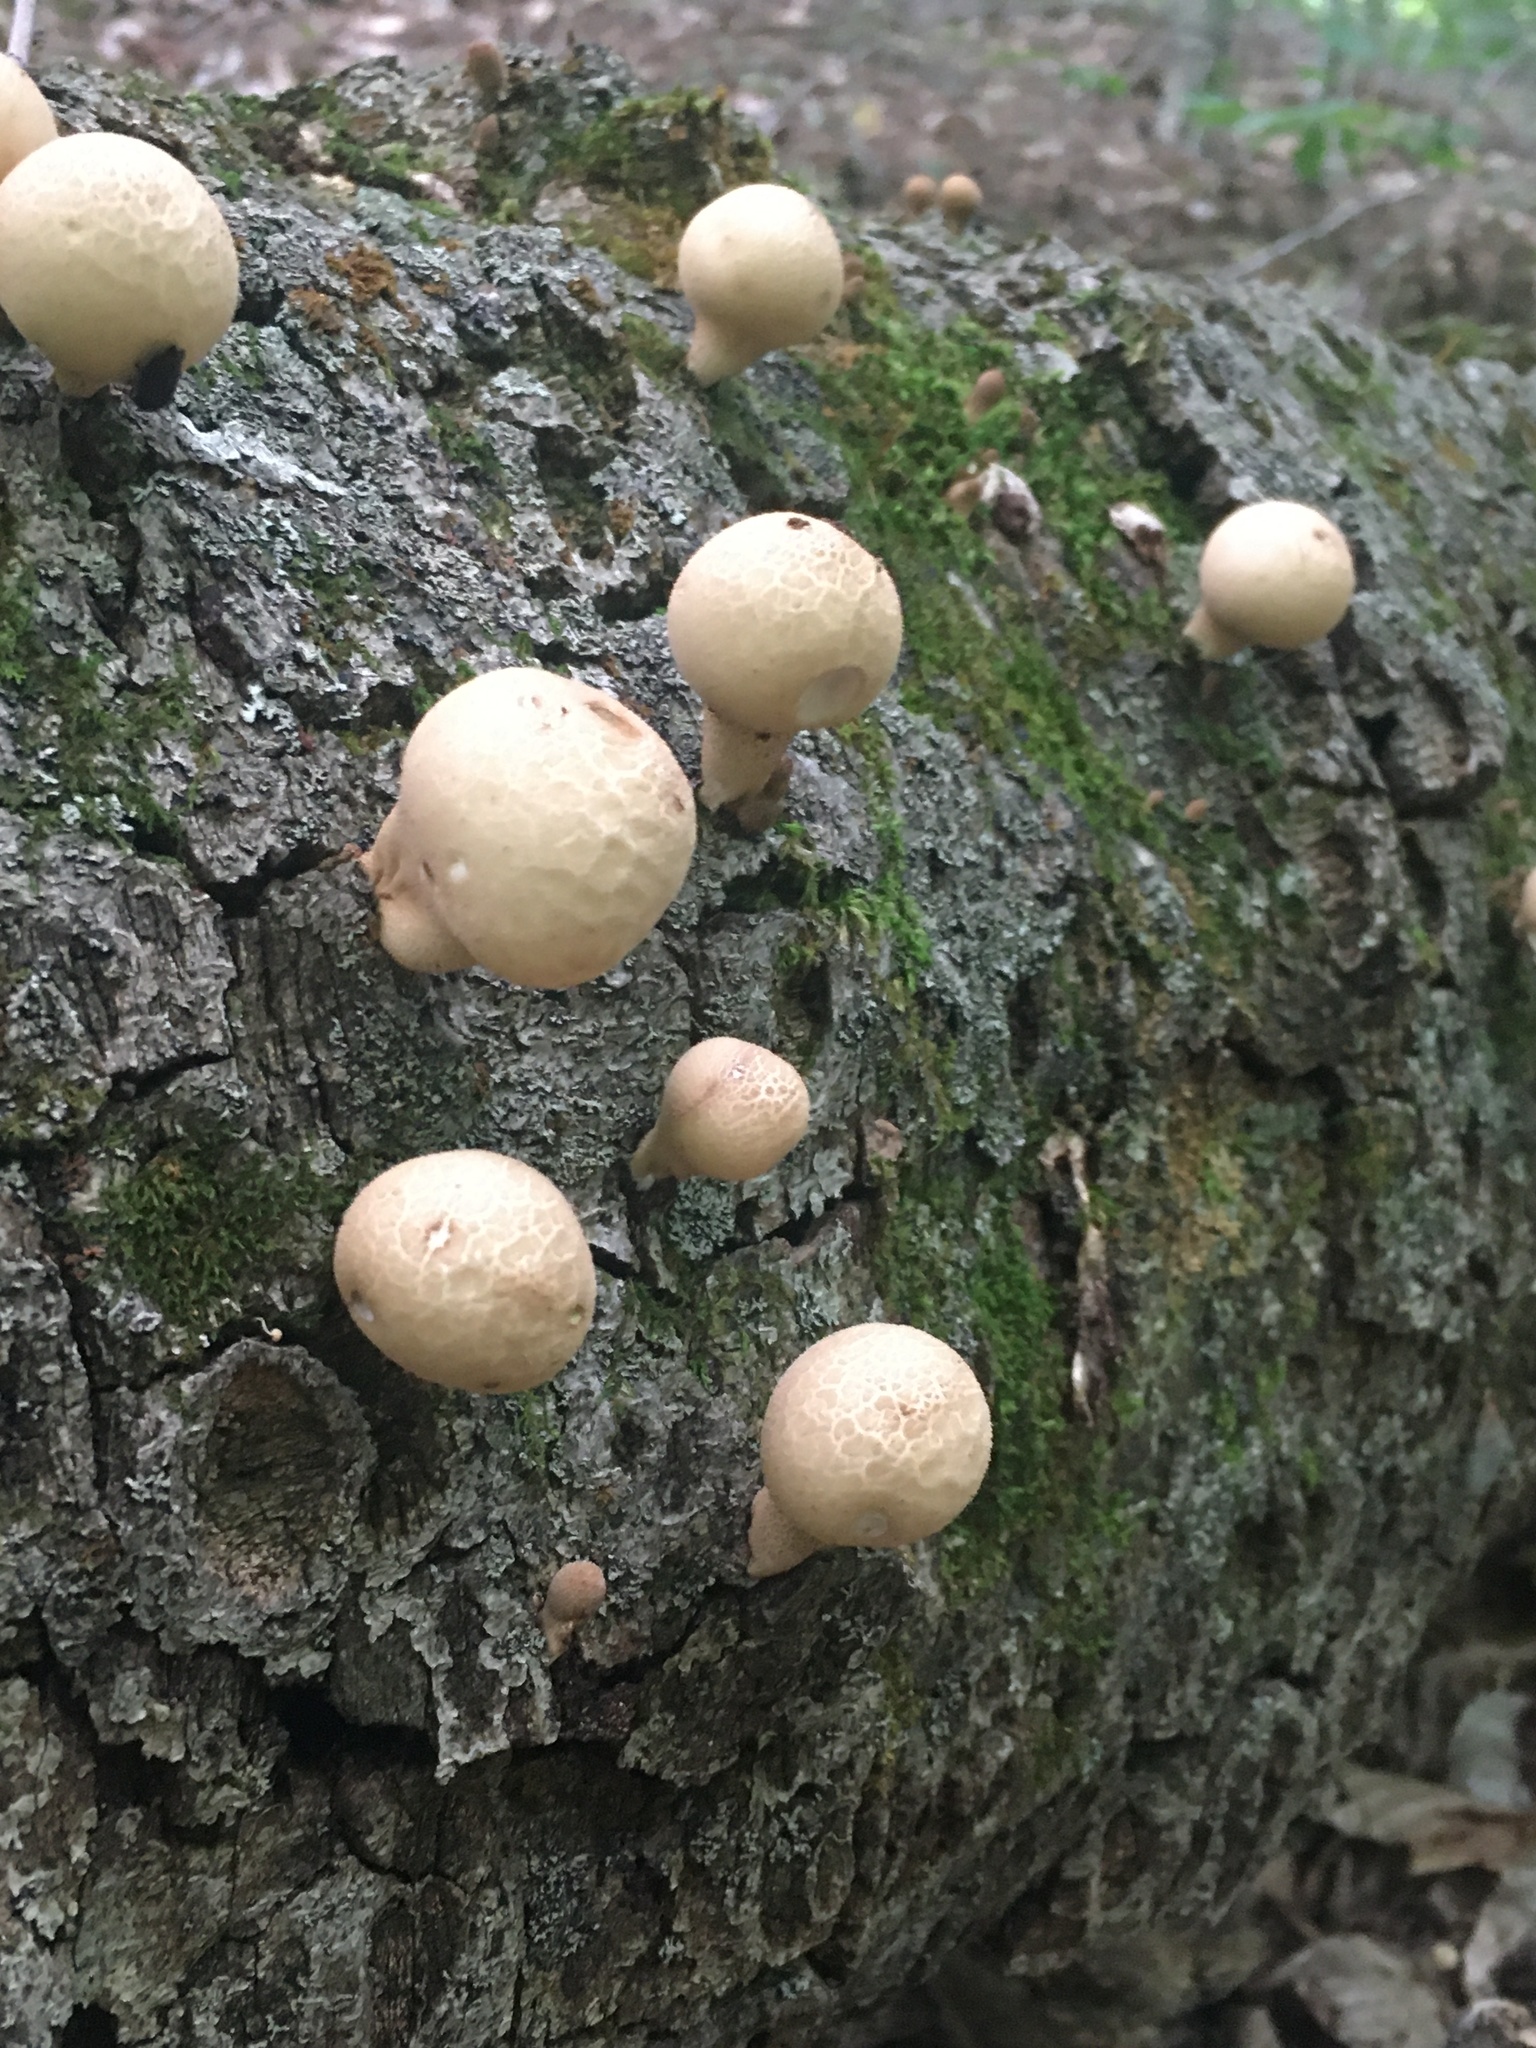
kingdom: Fungi
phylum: Basidiomycota
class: Agaricomycetes
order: Agaricales
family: Lycoperdaceae
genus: Apioperdon
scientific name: Apioperdon pyriforme
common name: Pear-shaped puffball
